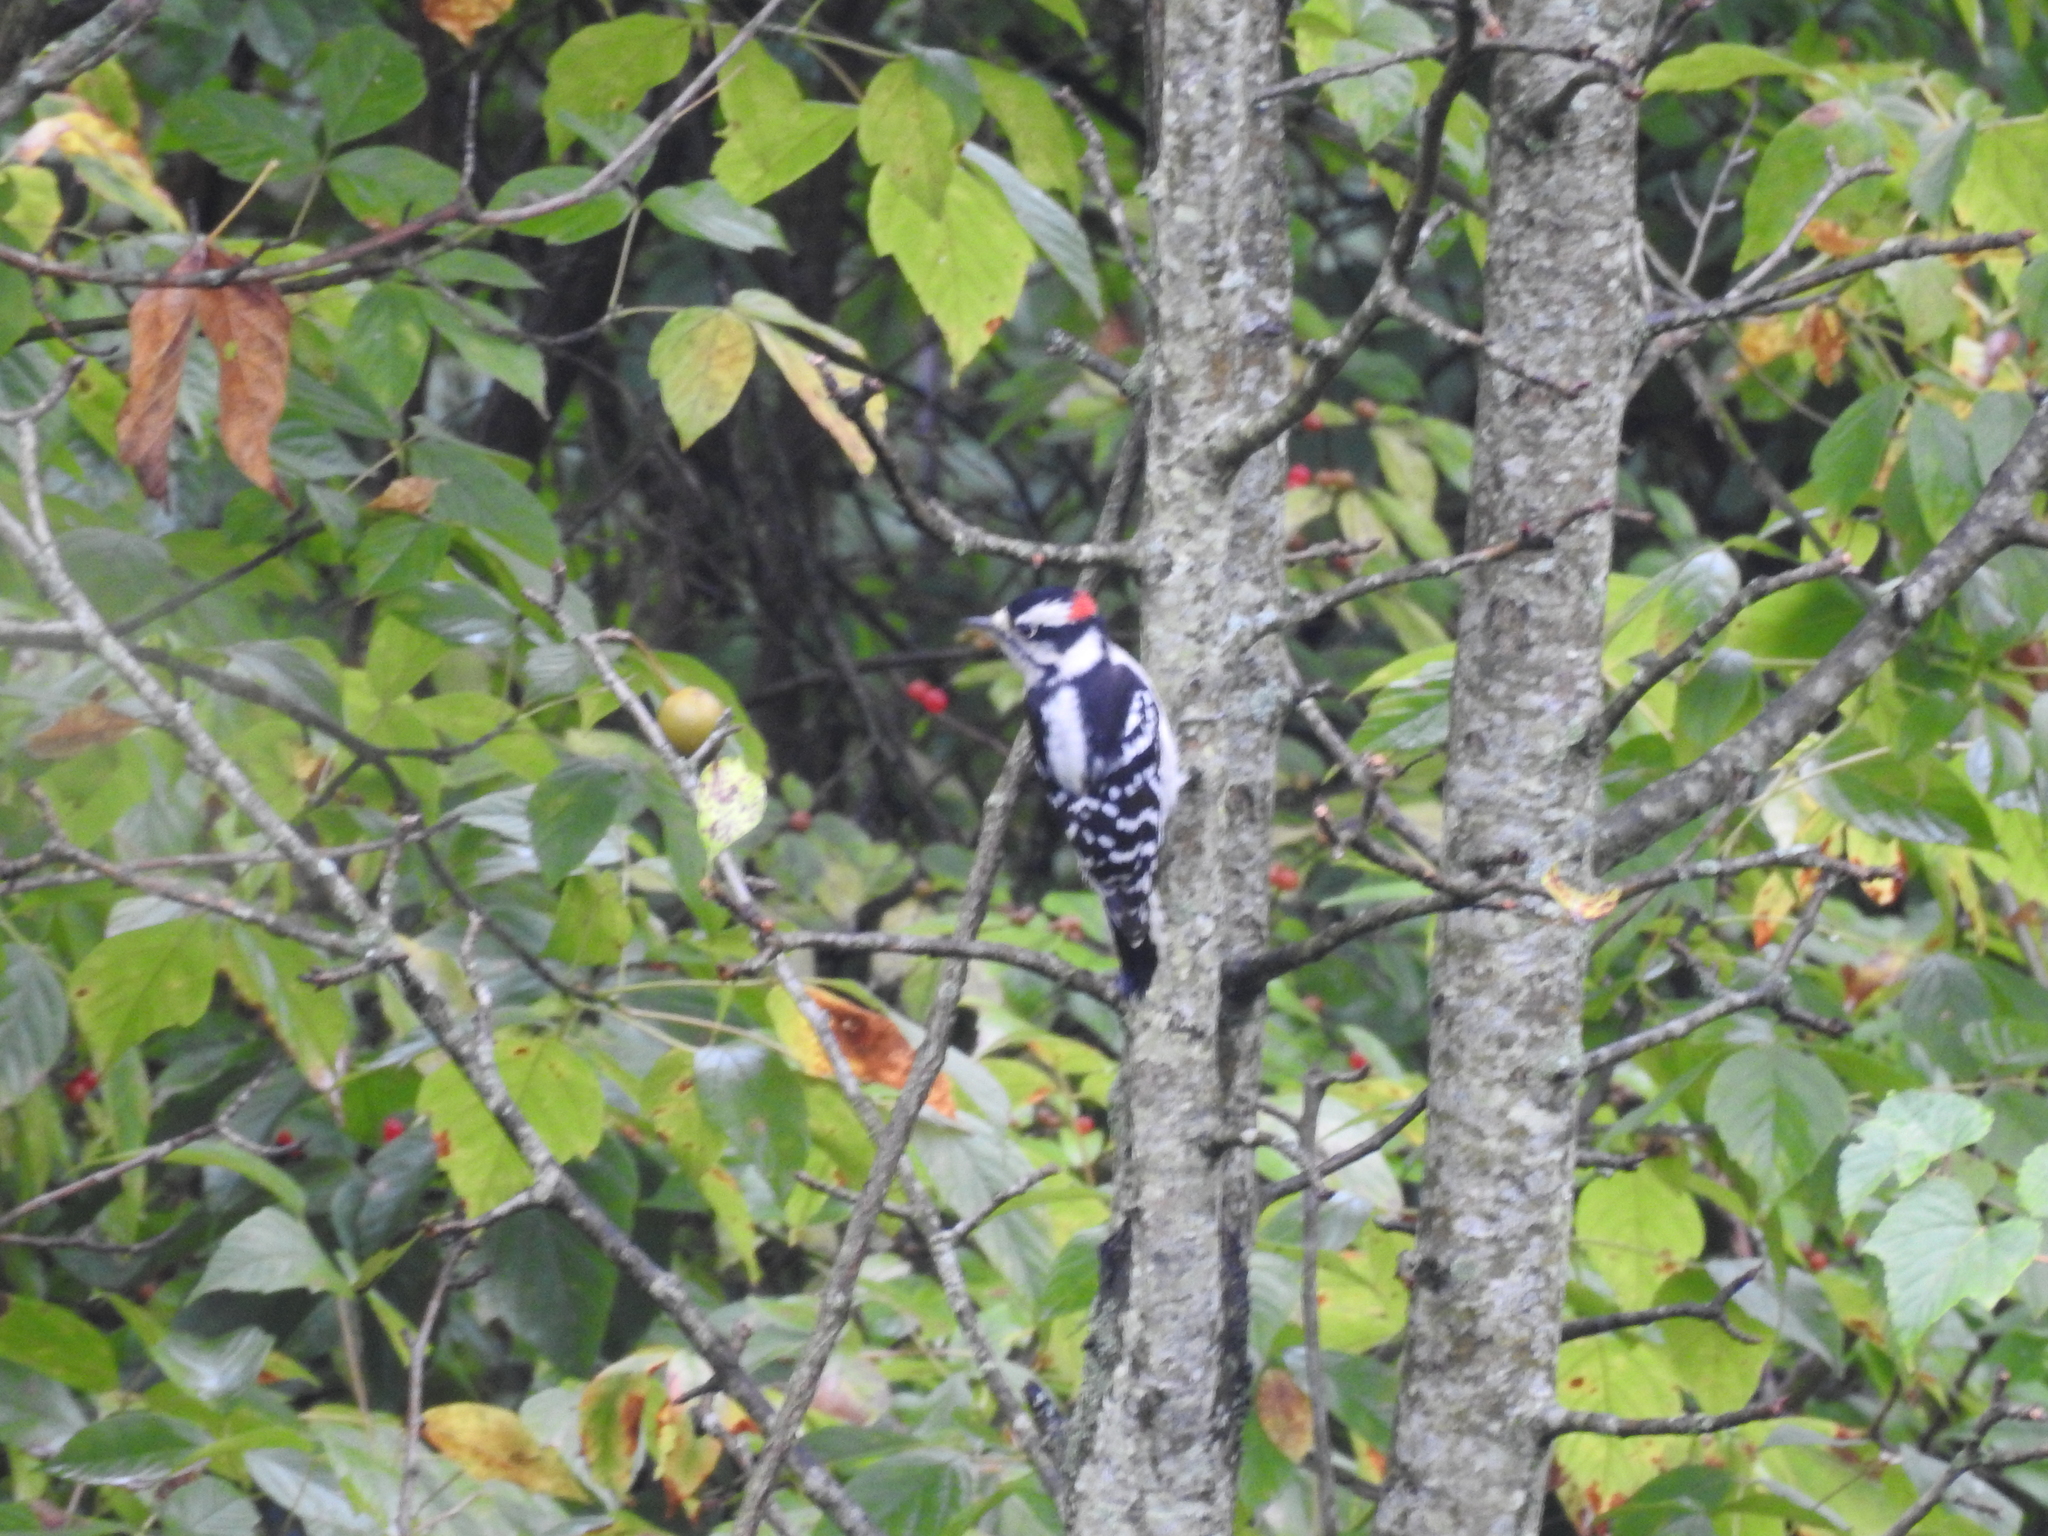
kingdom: Animalia
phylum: Chordata
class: Aves
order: Piciformes
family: Picidae
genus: Dryobates
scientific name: Dryobates pubescens
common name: Downy woodpecker
